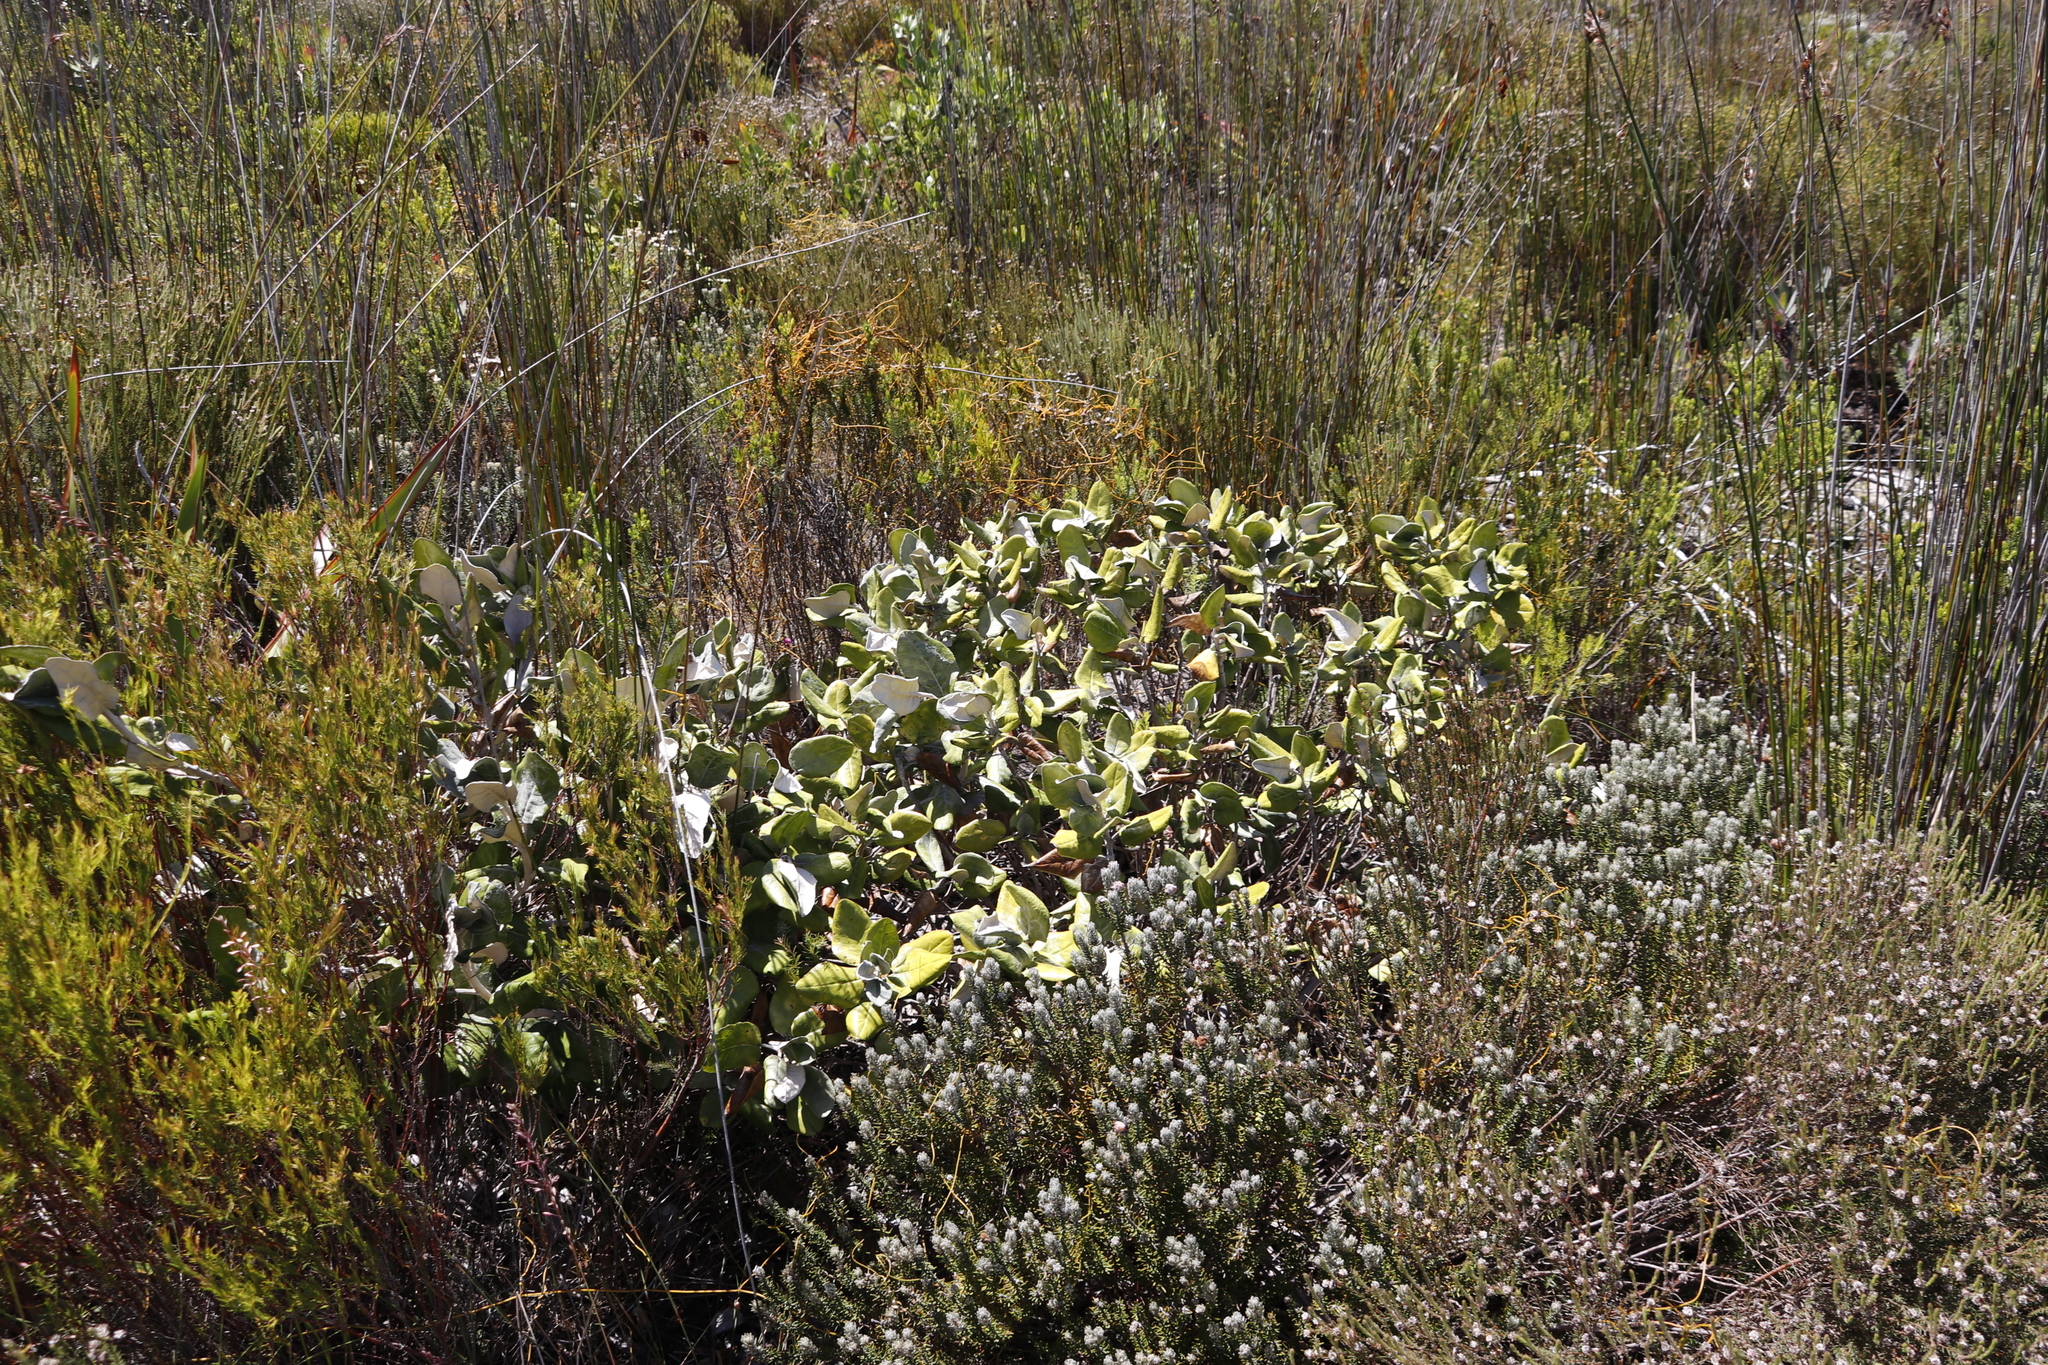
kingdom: Plantae
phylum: Tracheophyta
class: Magnoliopsida
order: Apiales
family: Apiaceae
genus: Hermas
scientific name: Hermas villosa
